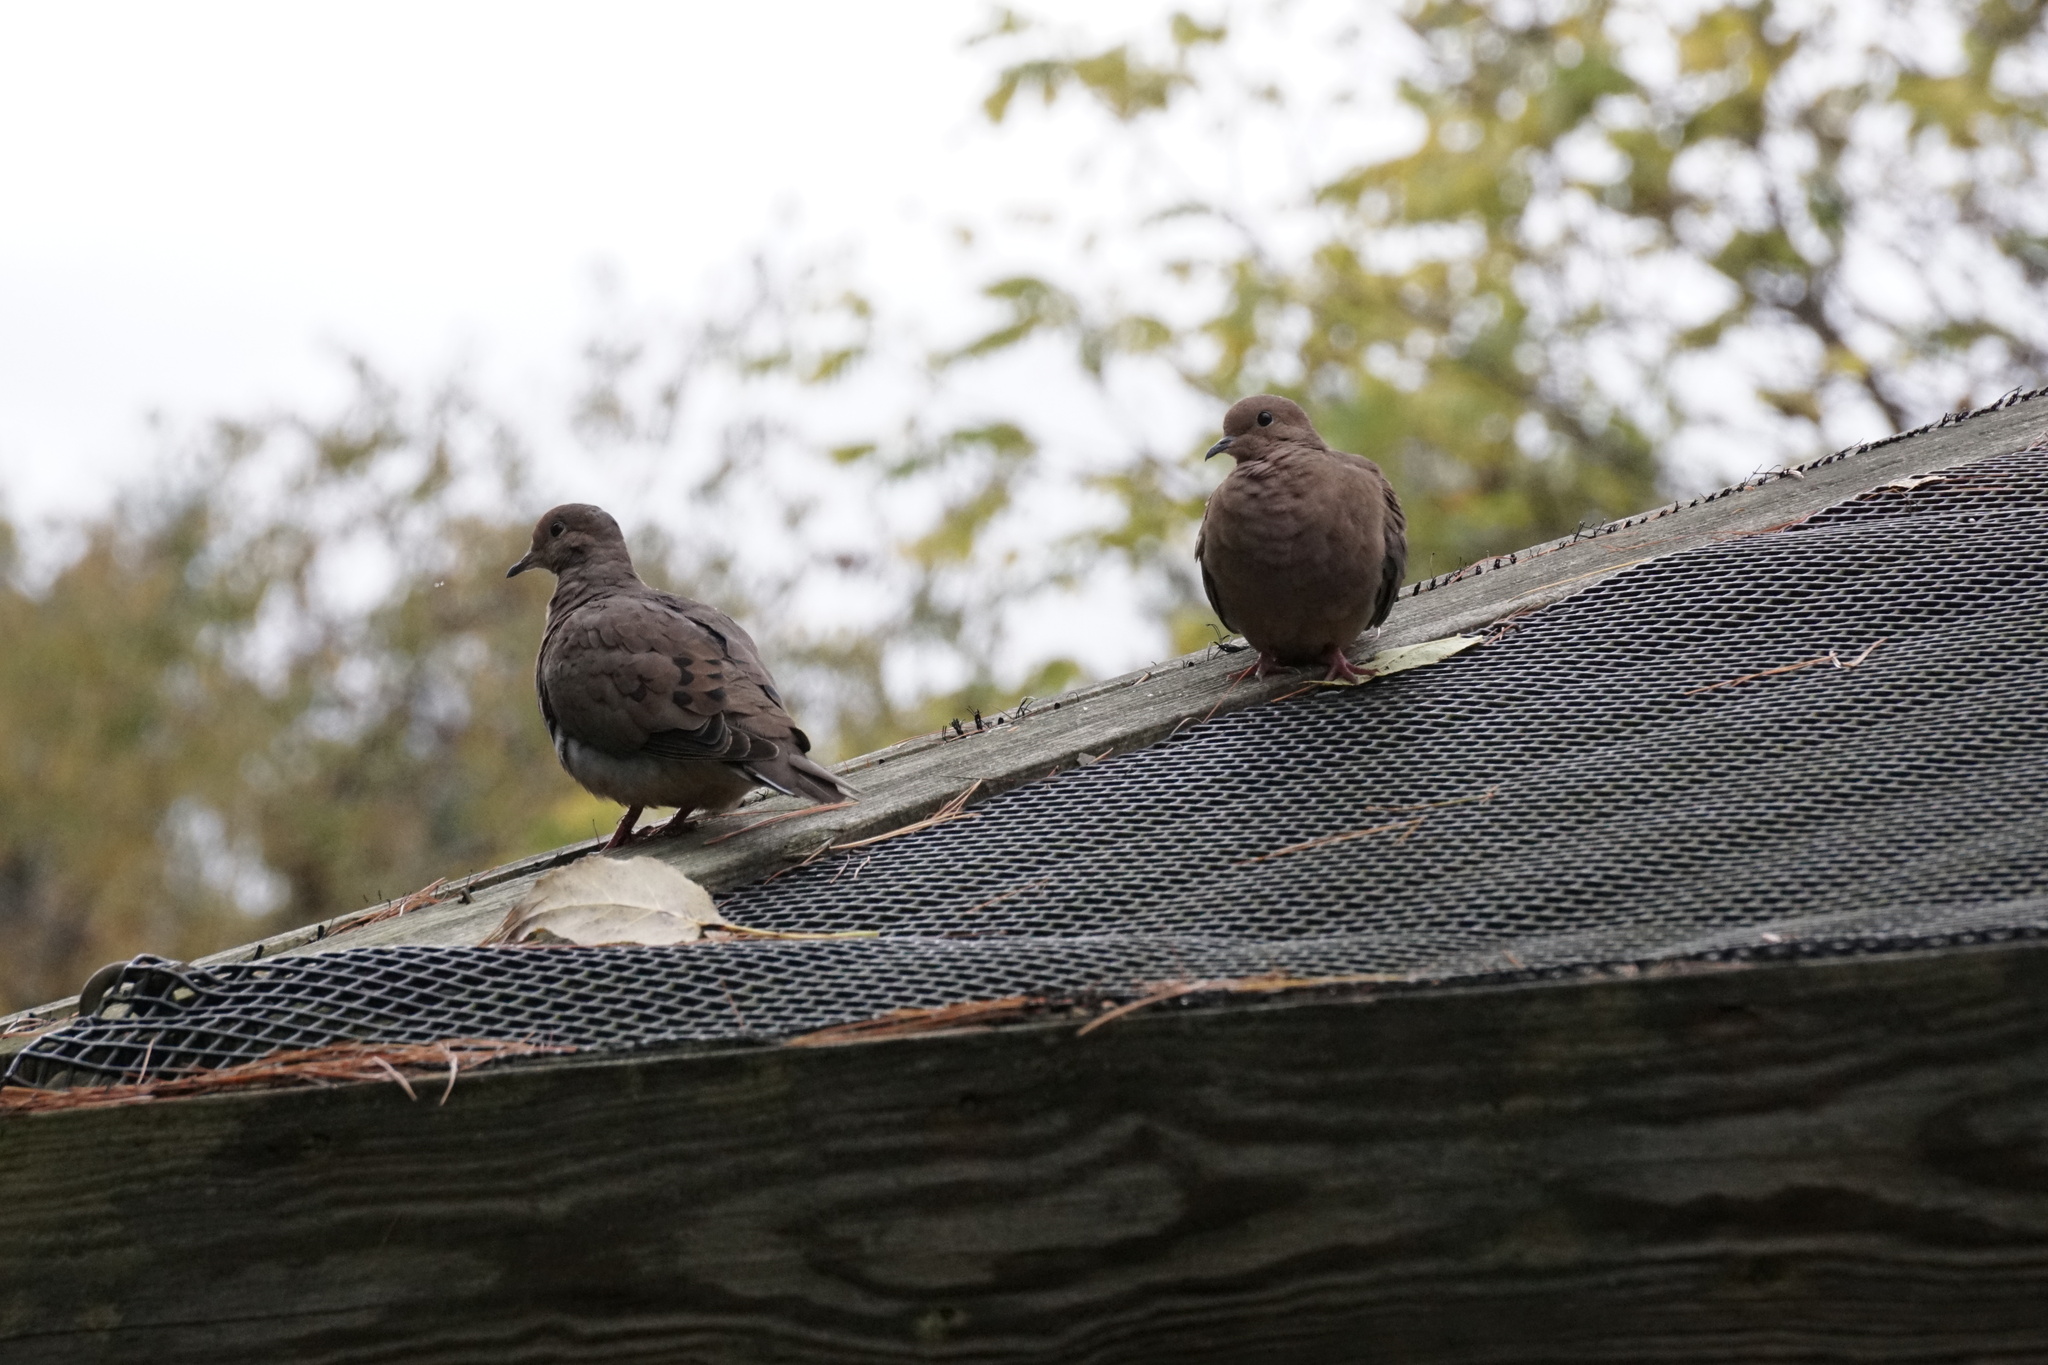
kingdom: Animalia
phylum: Chordata
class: Aves
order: Columbiformes
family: Columbidae
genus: Zenaida
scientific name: Zenaida macroura
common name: Mourning dove
